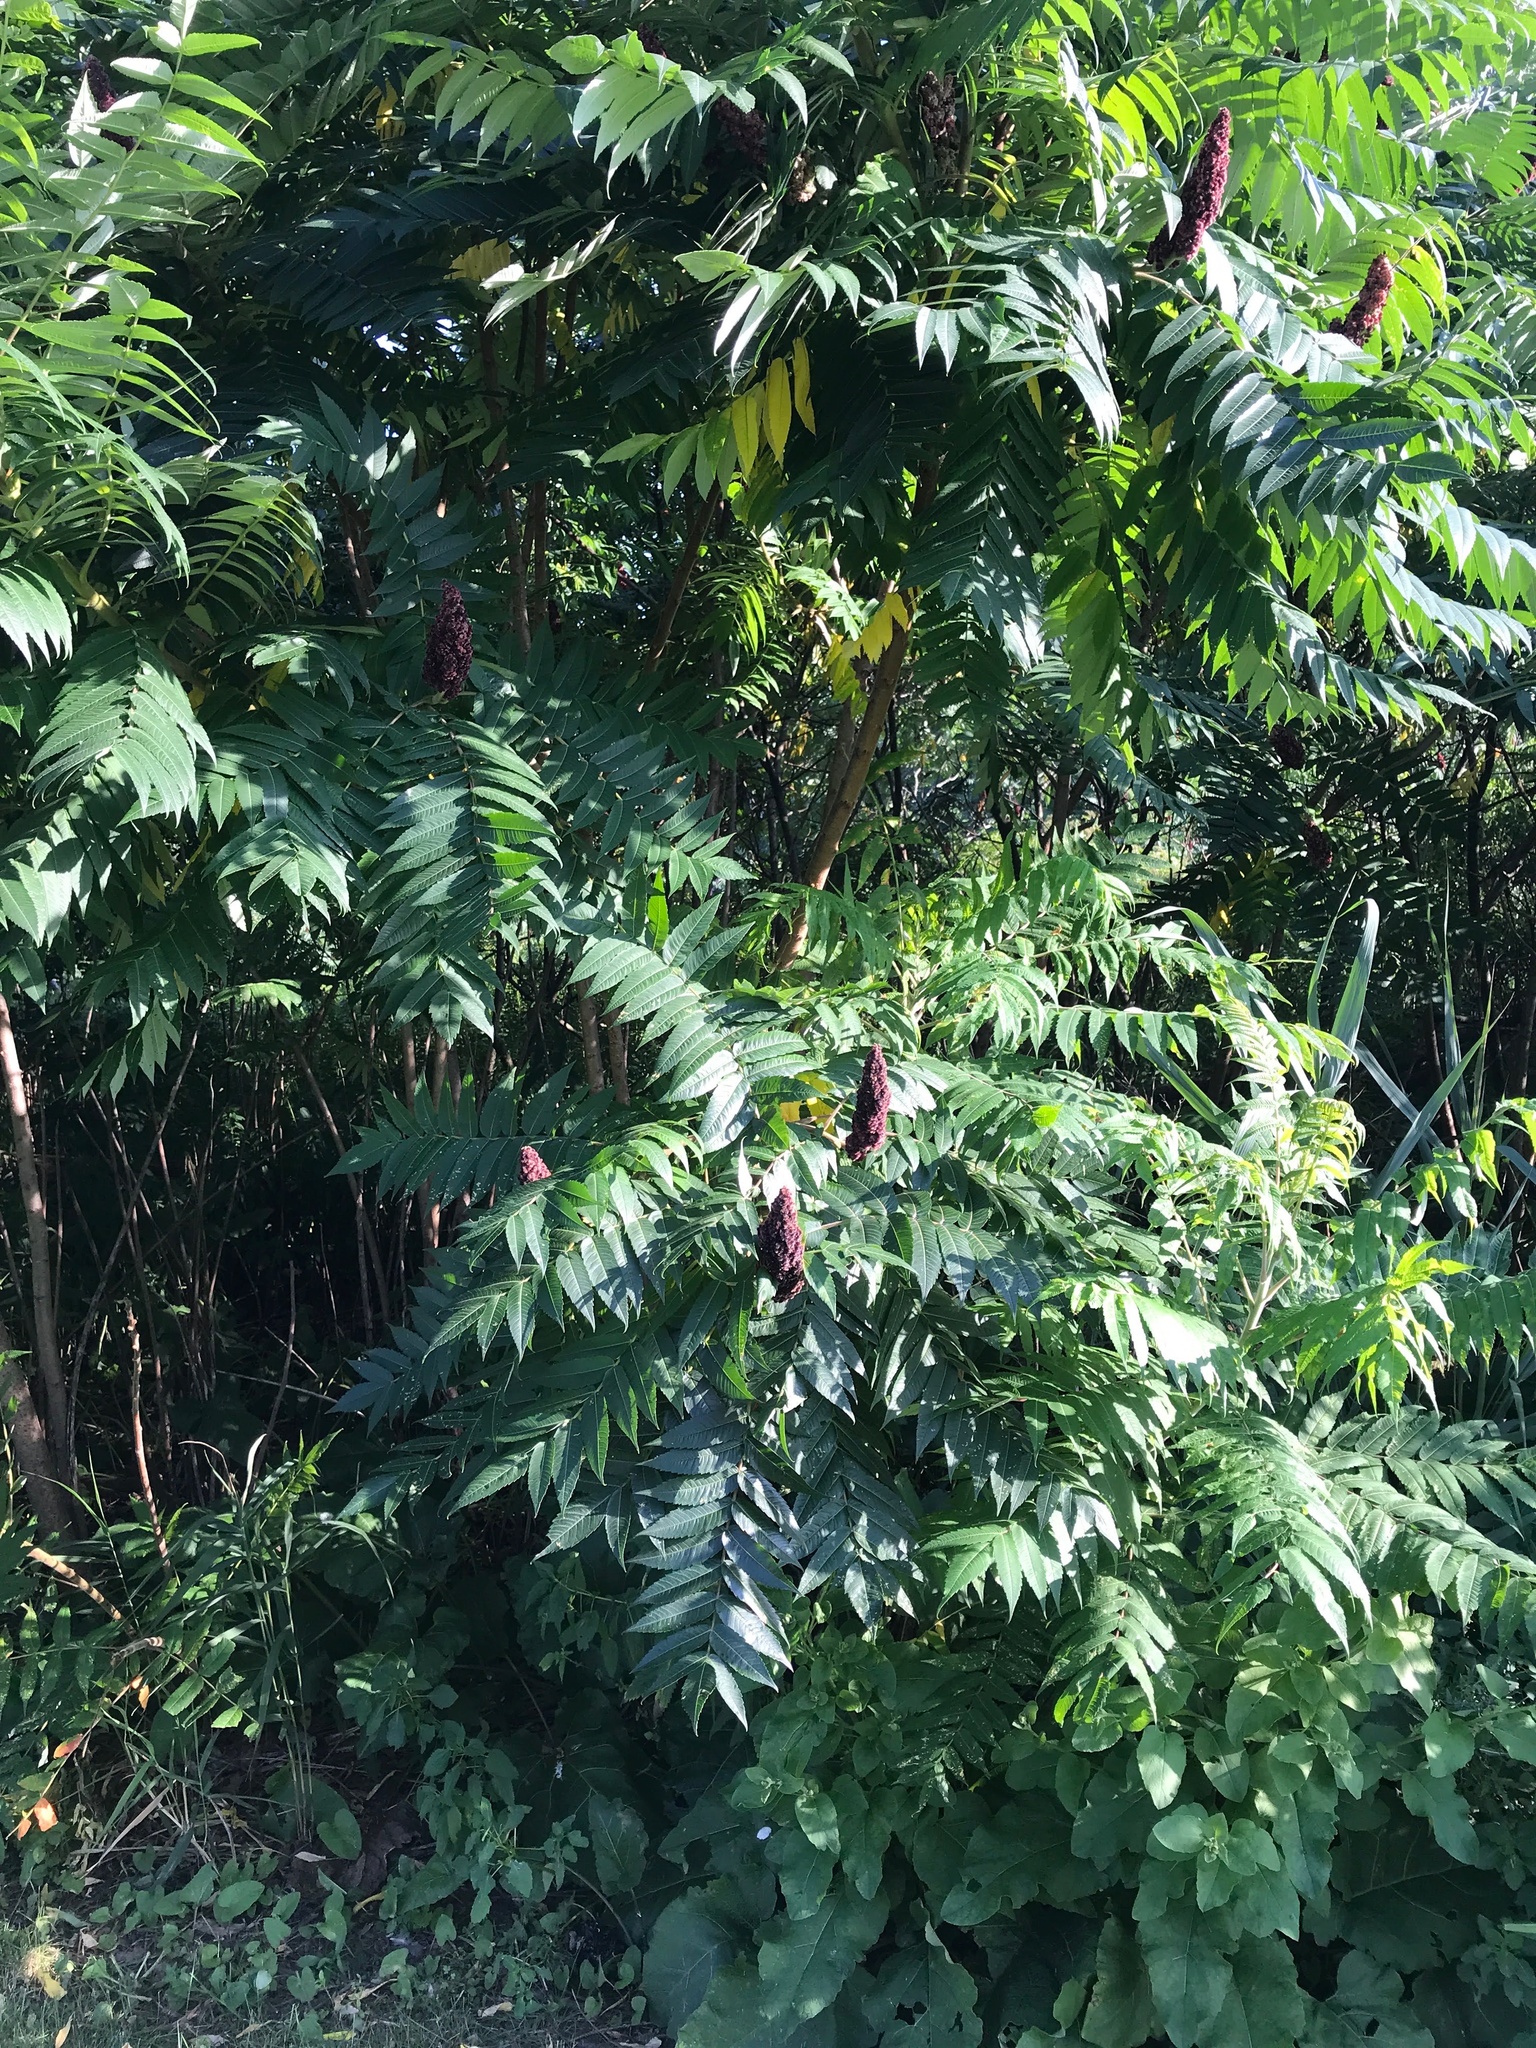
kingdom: Plantae
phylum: Tracheophyta
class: Magnoliopsida
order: Sapindales
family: Anacardiaceae
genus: Rhus
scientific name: Rhus typhina
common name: Staghorn sumac
